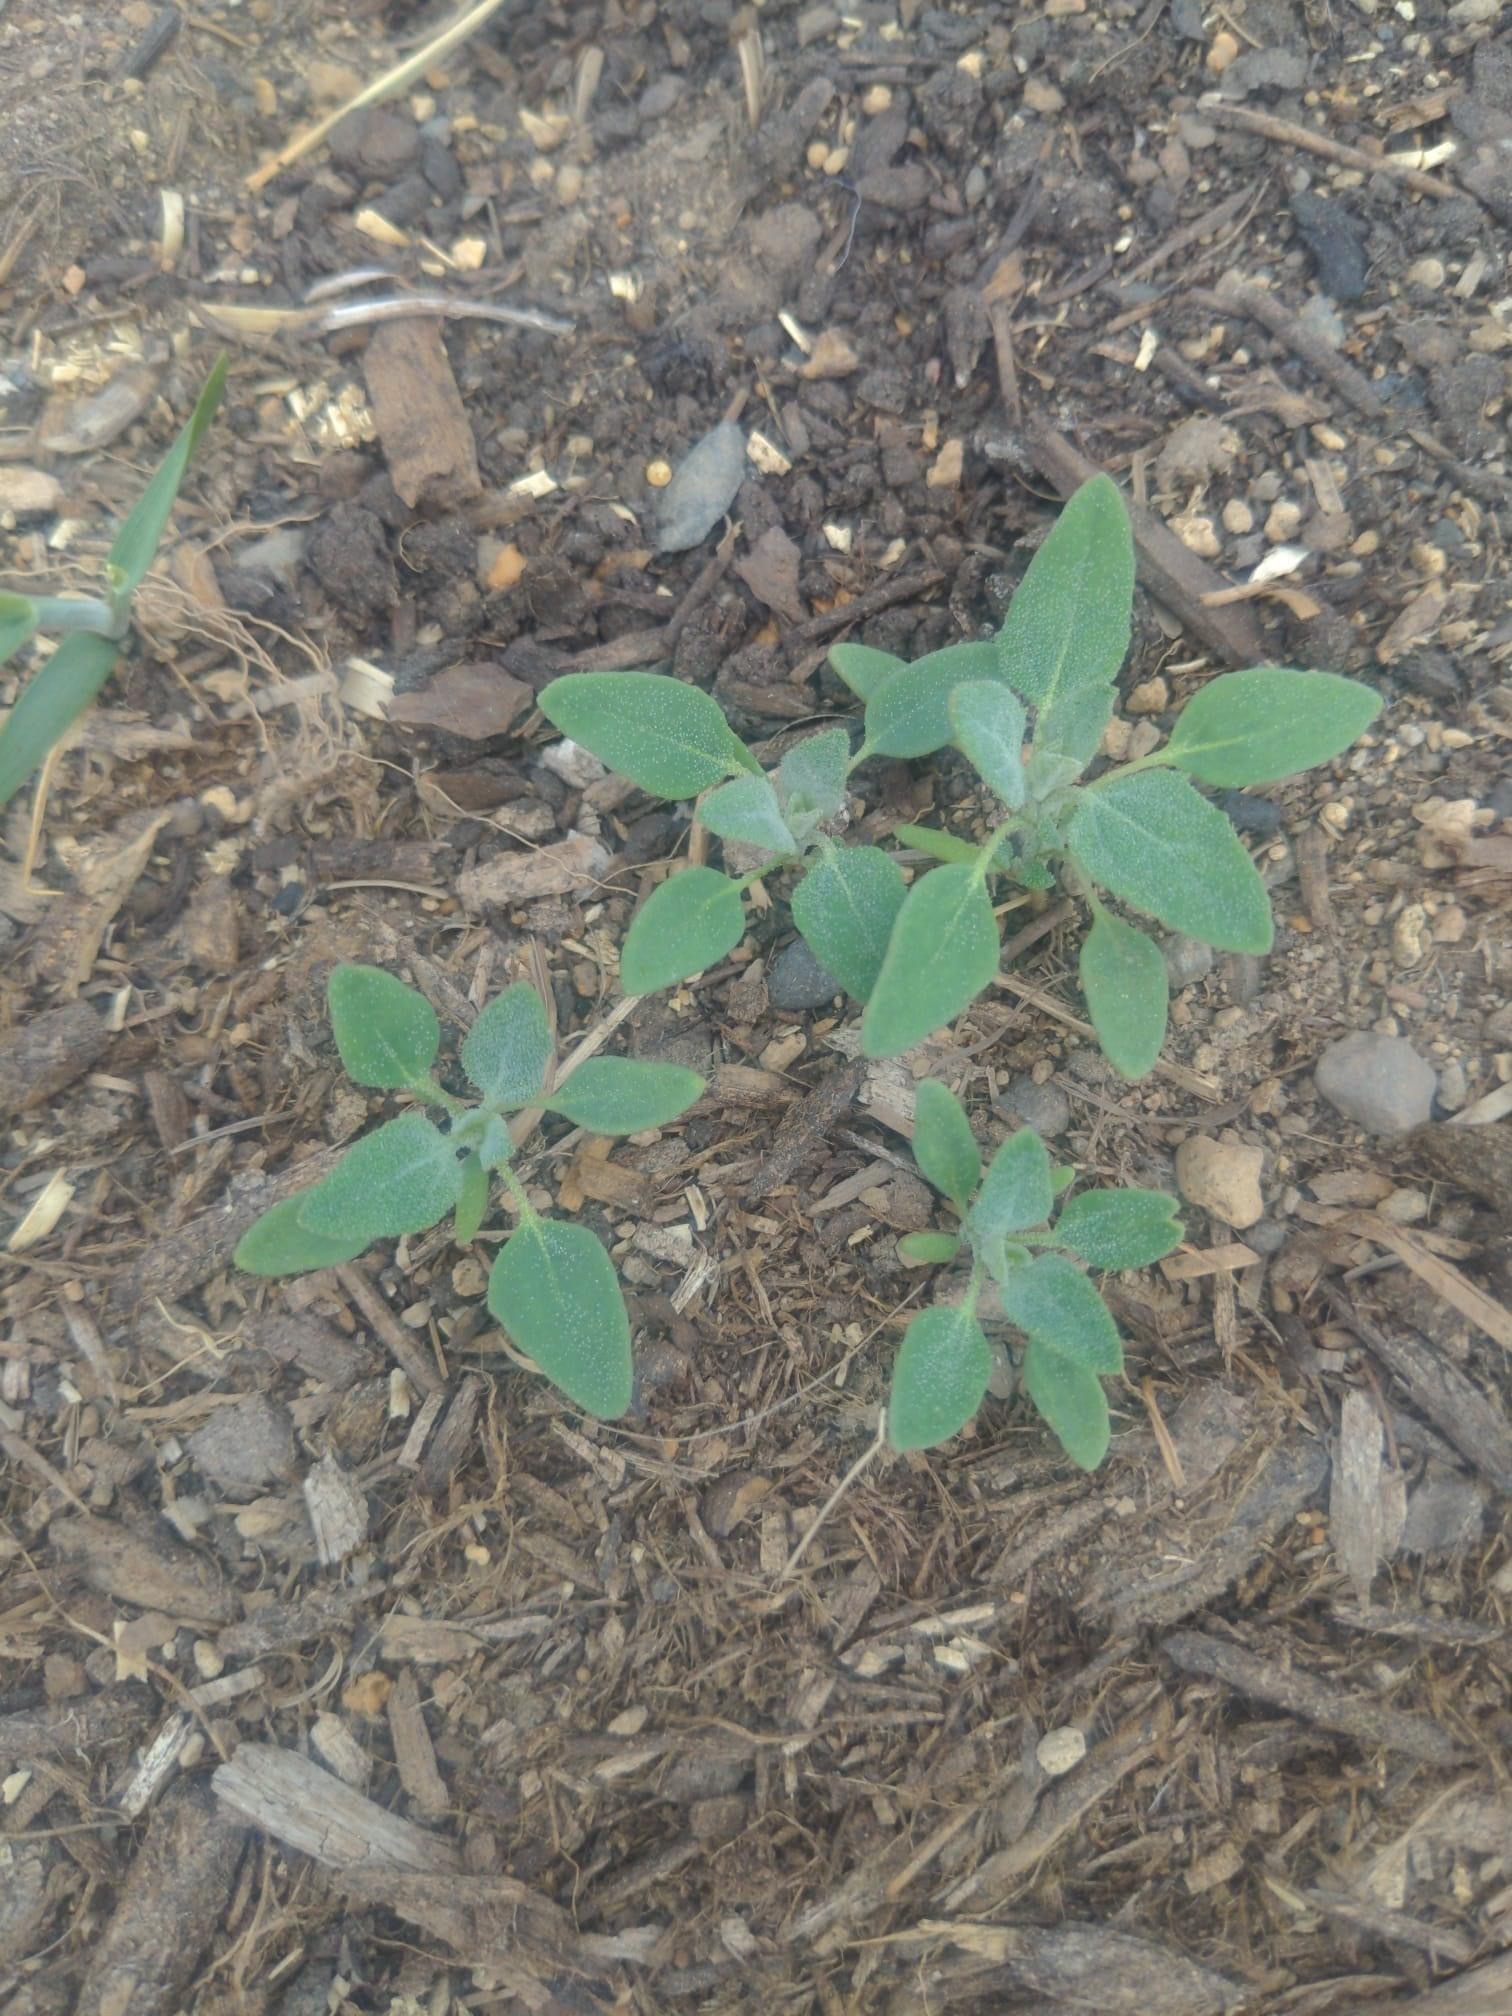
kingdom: Plantae
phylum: Tracheophyta
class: Magnoliopsida
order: Caryophyllales
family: Amaranthaceae
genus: Chenopodium
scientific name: Chenopodium album
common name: Fat-hen
